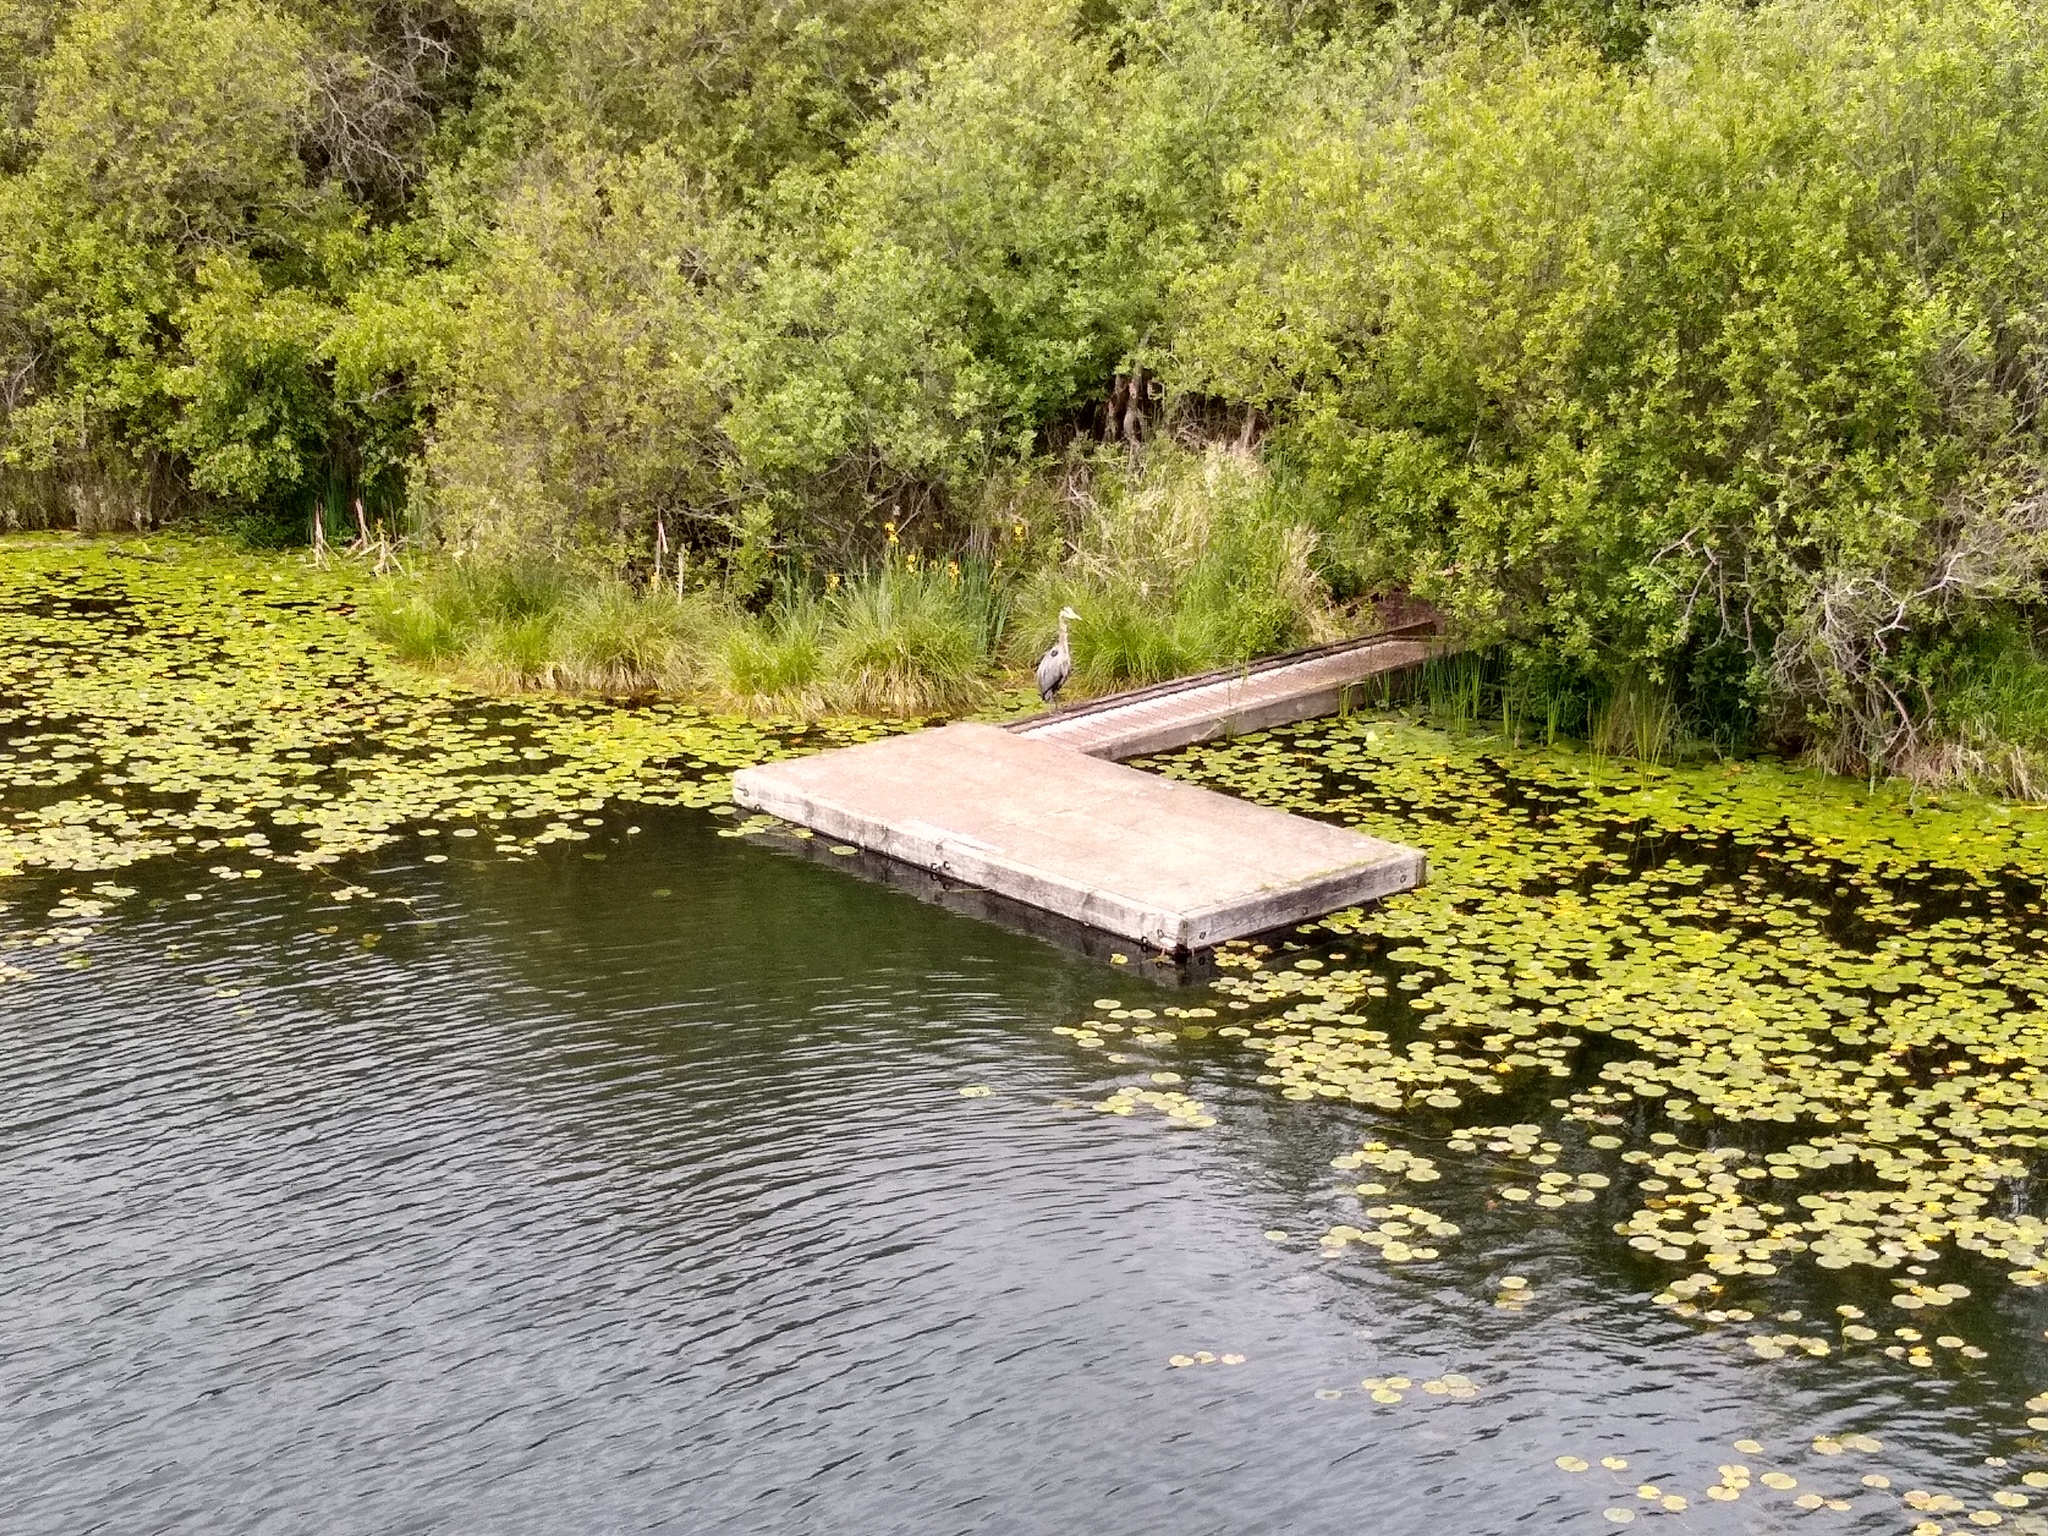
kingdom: Animalia
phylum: Chordata
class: Aves
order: Pelecaniformes
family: Ardeidae
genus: Ardea
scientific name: Ardea herodias
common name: Great blue heron
